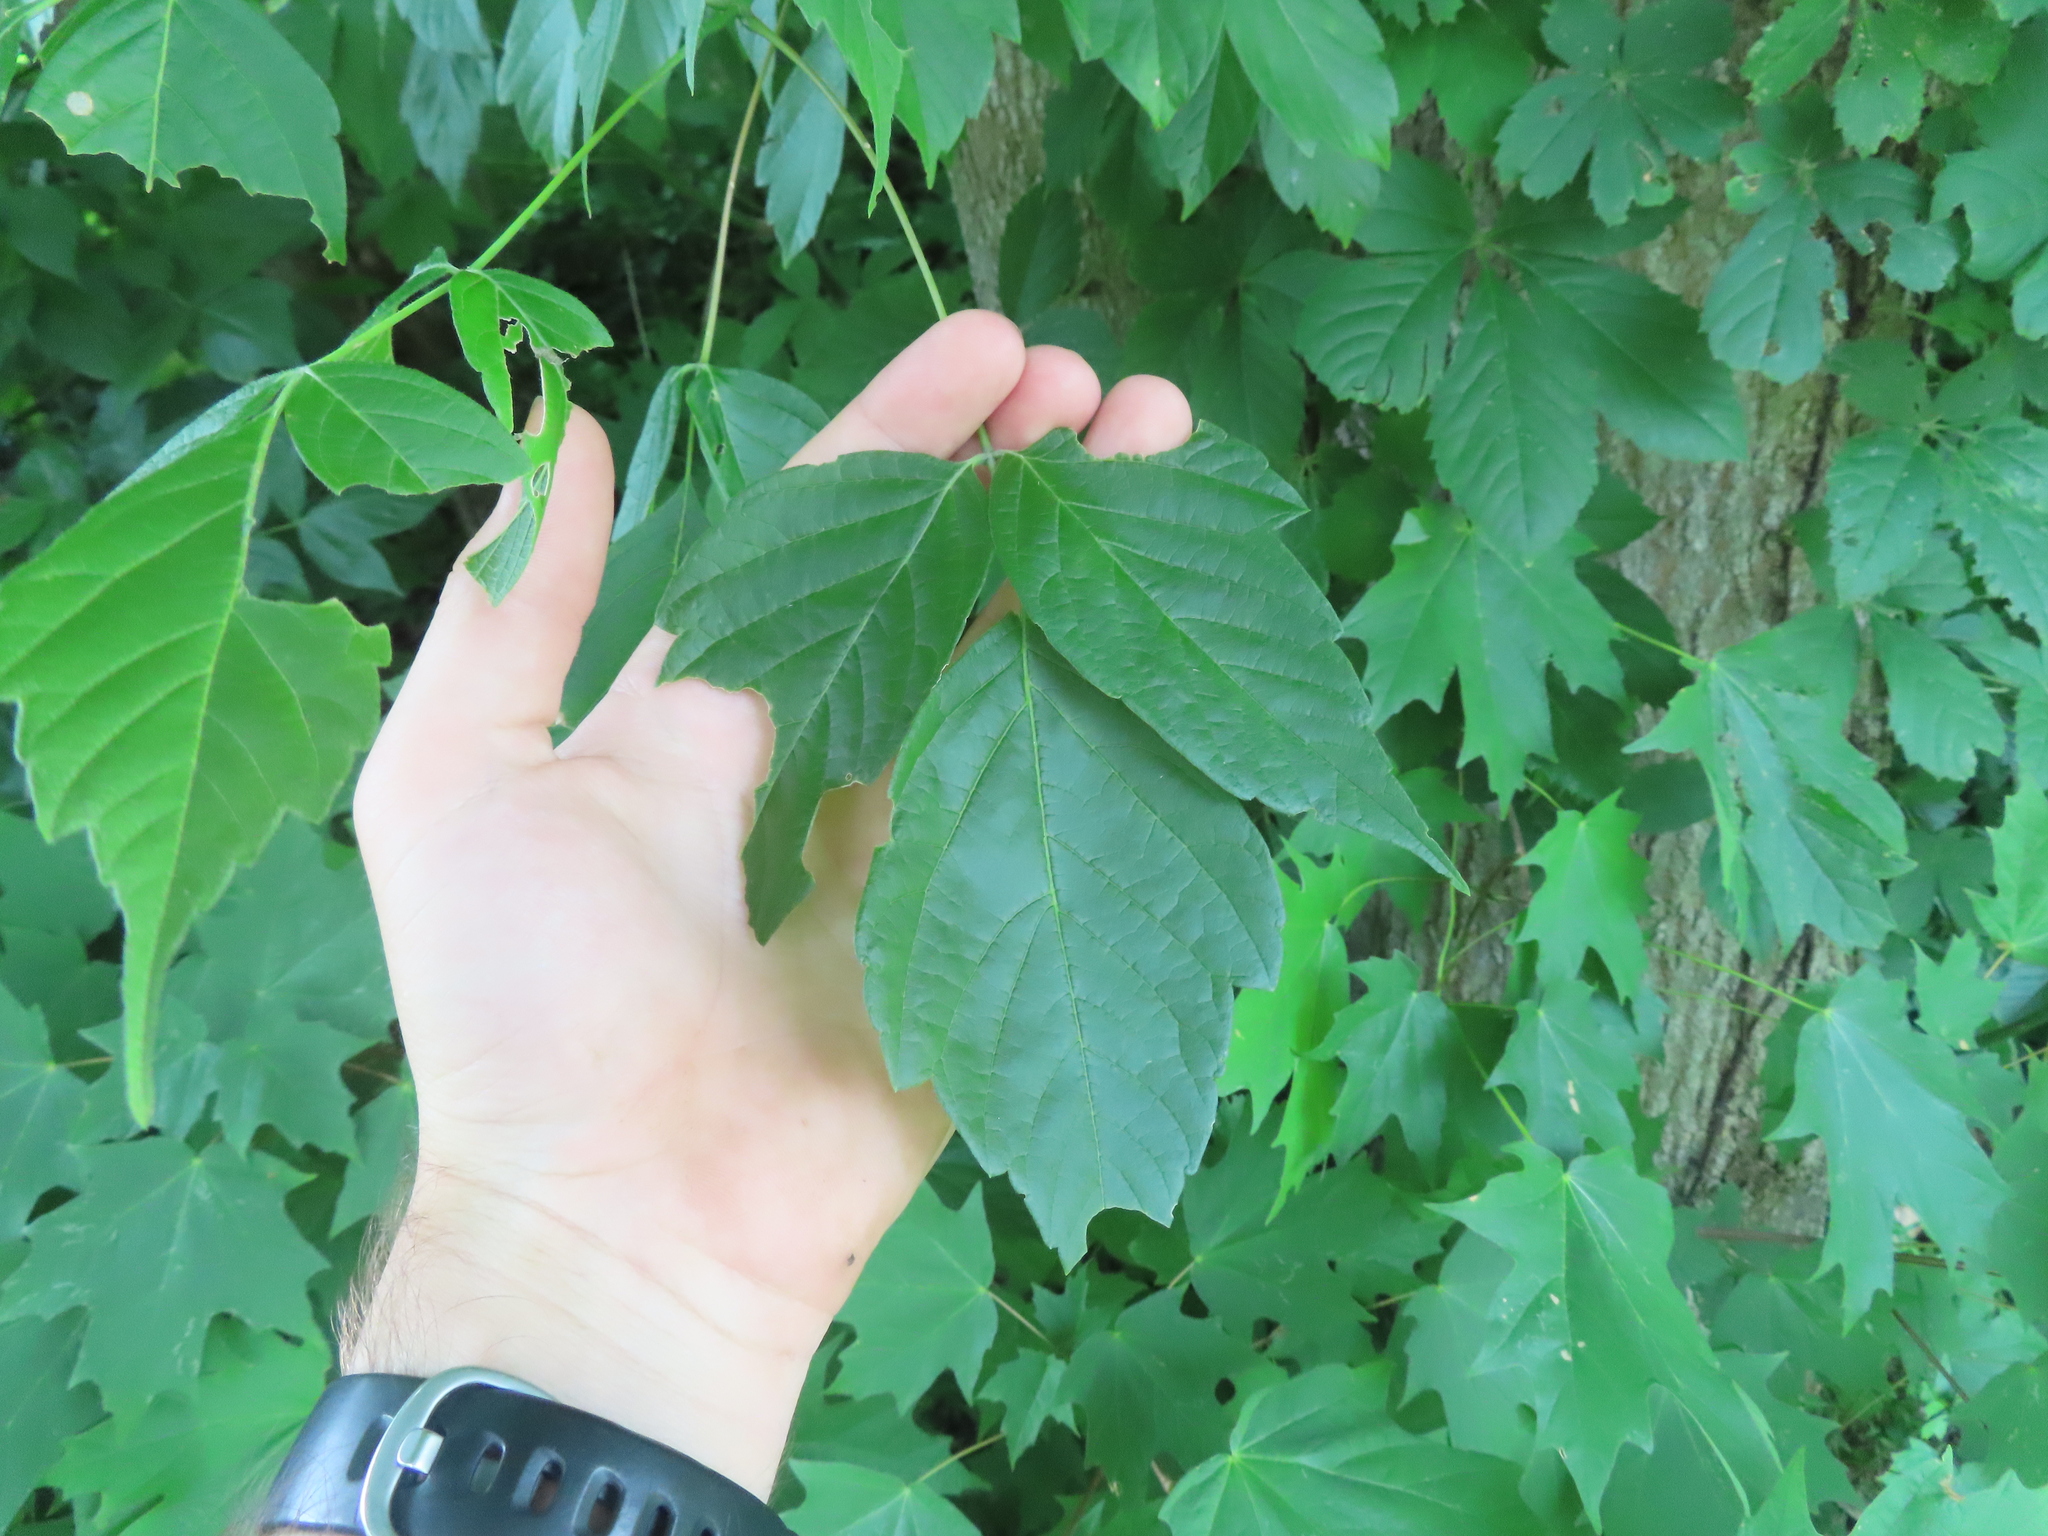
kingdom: Plantae
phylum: Tracheophyta
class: Magnoliopsida
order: Sapindales
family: Sapindaceae
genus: Acer
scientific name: Acer negundo
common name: Ashleaf maple
